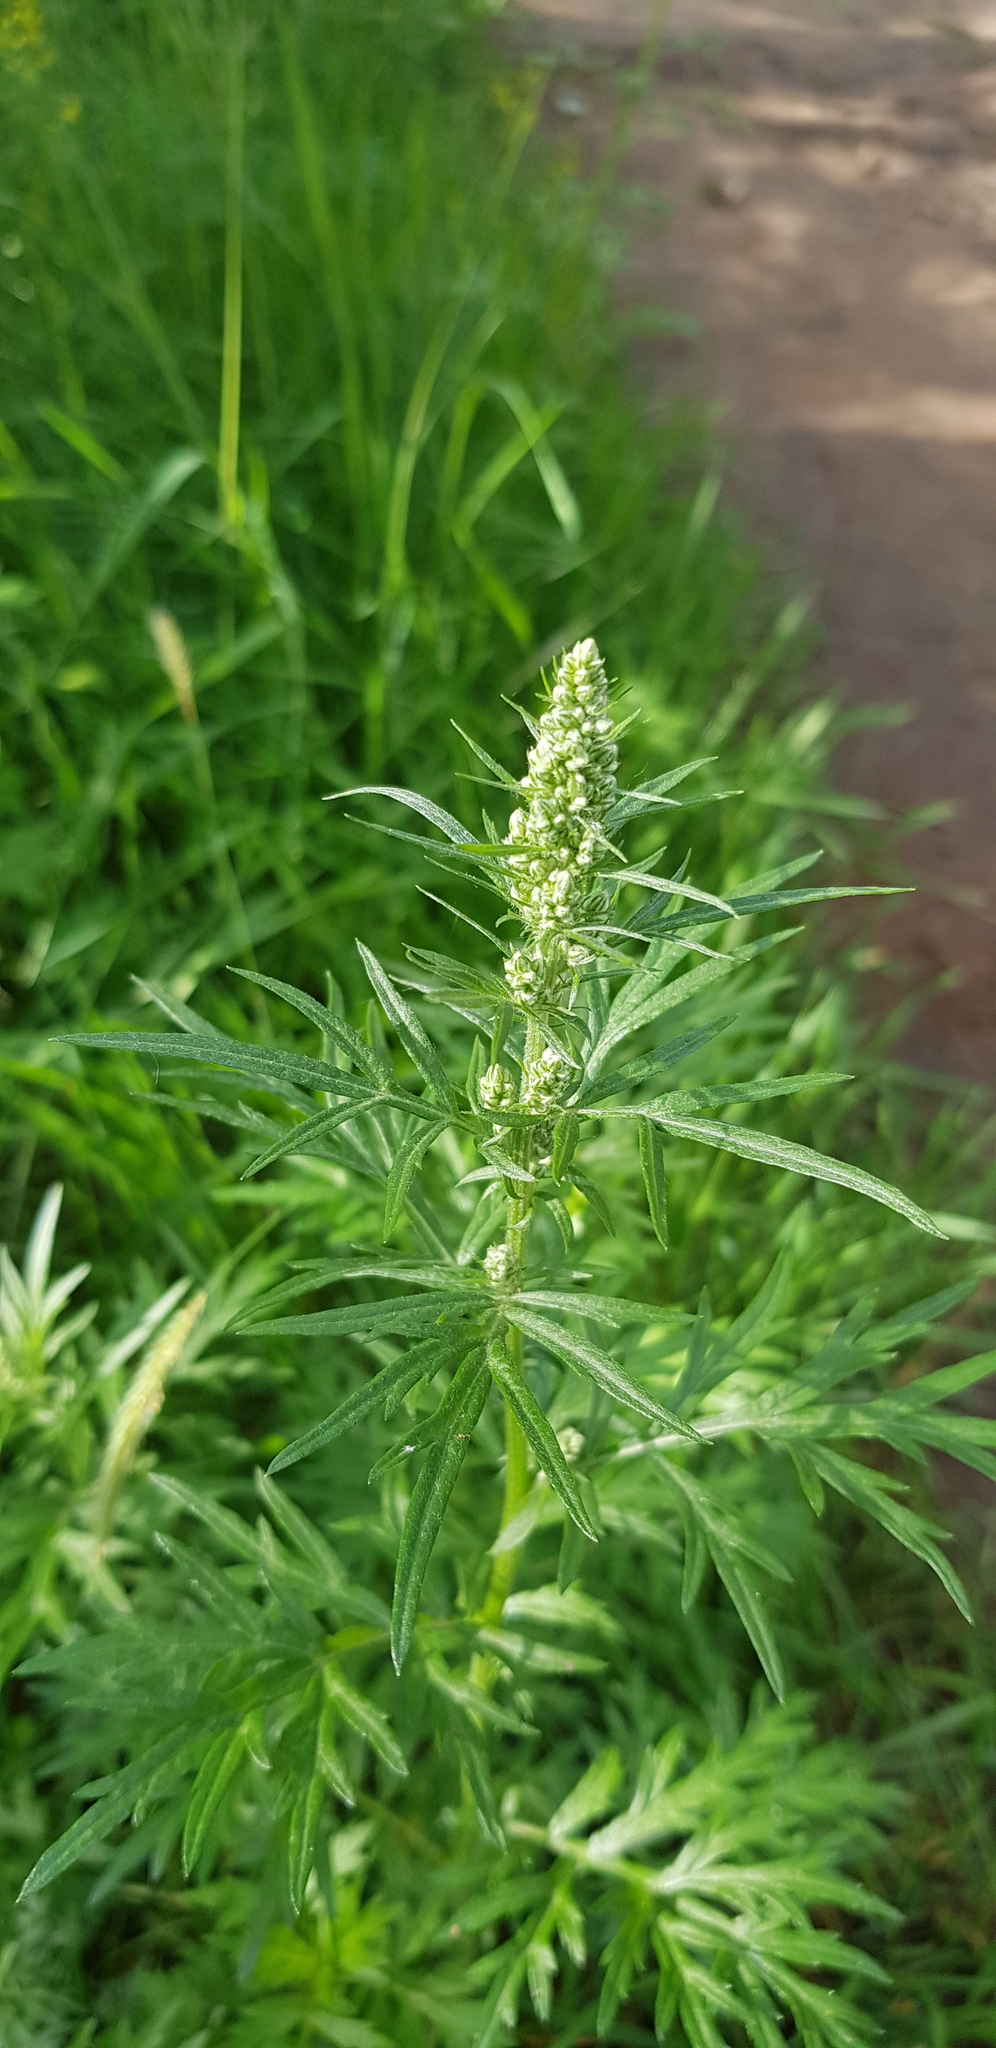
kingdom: Plantae
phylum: Tracheophyta
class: Magnoliopsida
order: Asterales
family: Asteraceae
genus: Artemisia
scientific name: Artemisia sieversiana
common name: Sieversian wormwood
